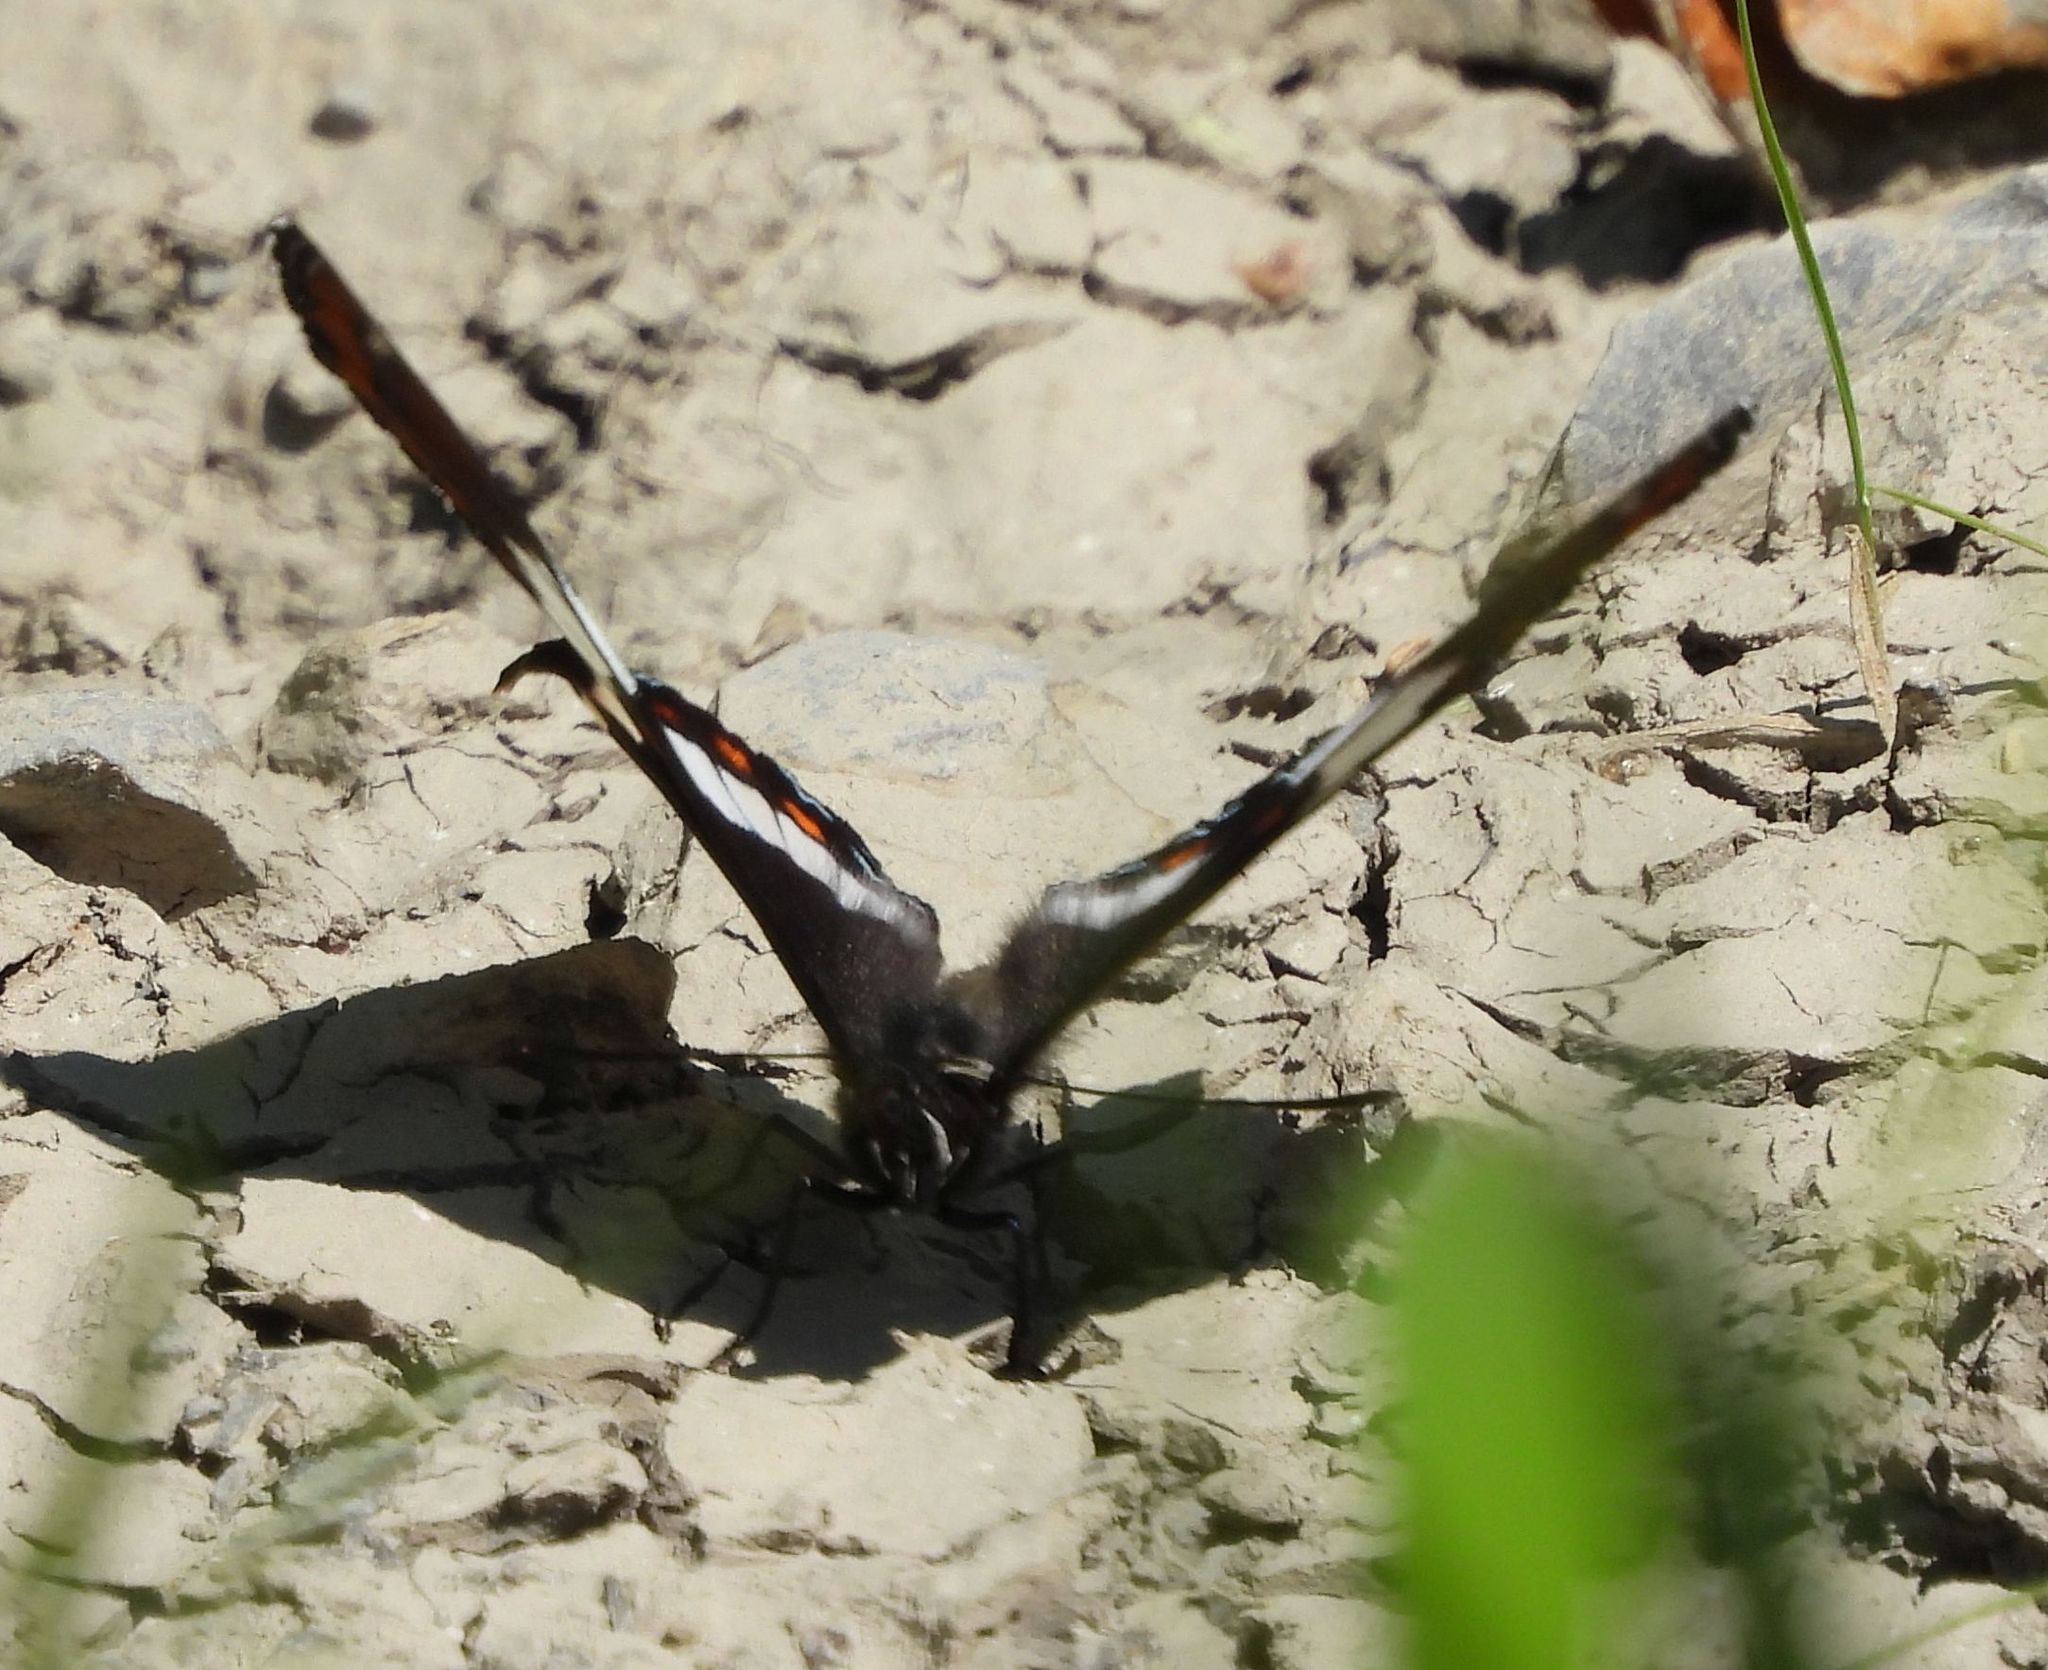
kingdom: Animalia
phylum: Arthropoda
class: Insecta
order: Lepidoptera
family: Nymphalidae
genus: Limenitis
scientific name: Limenitis arthemis
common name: Red-spotted admiral
